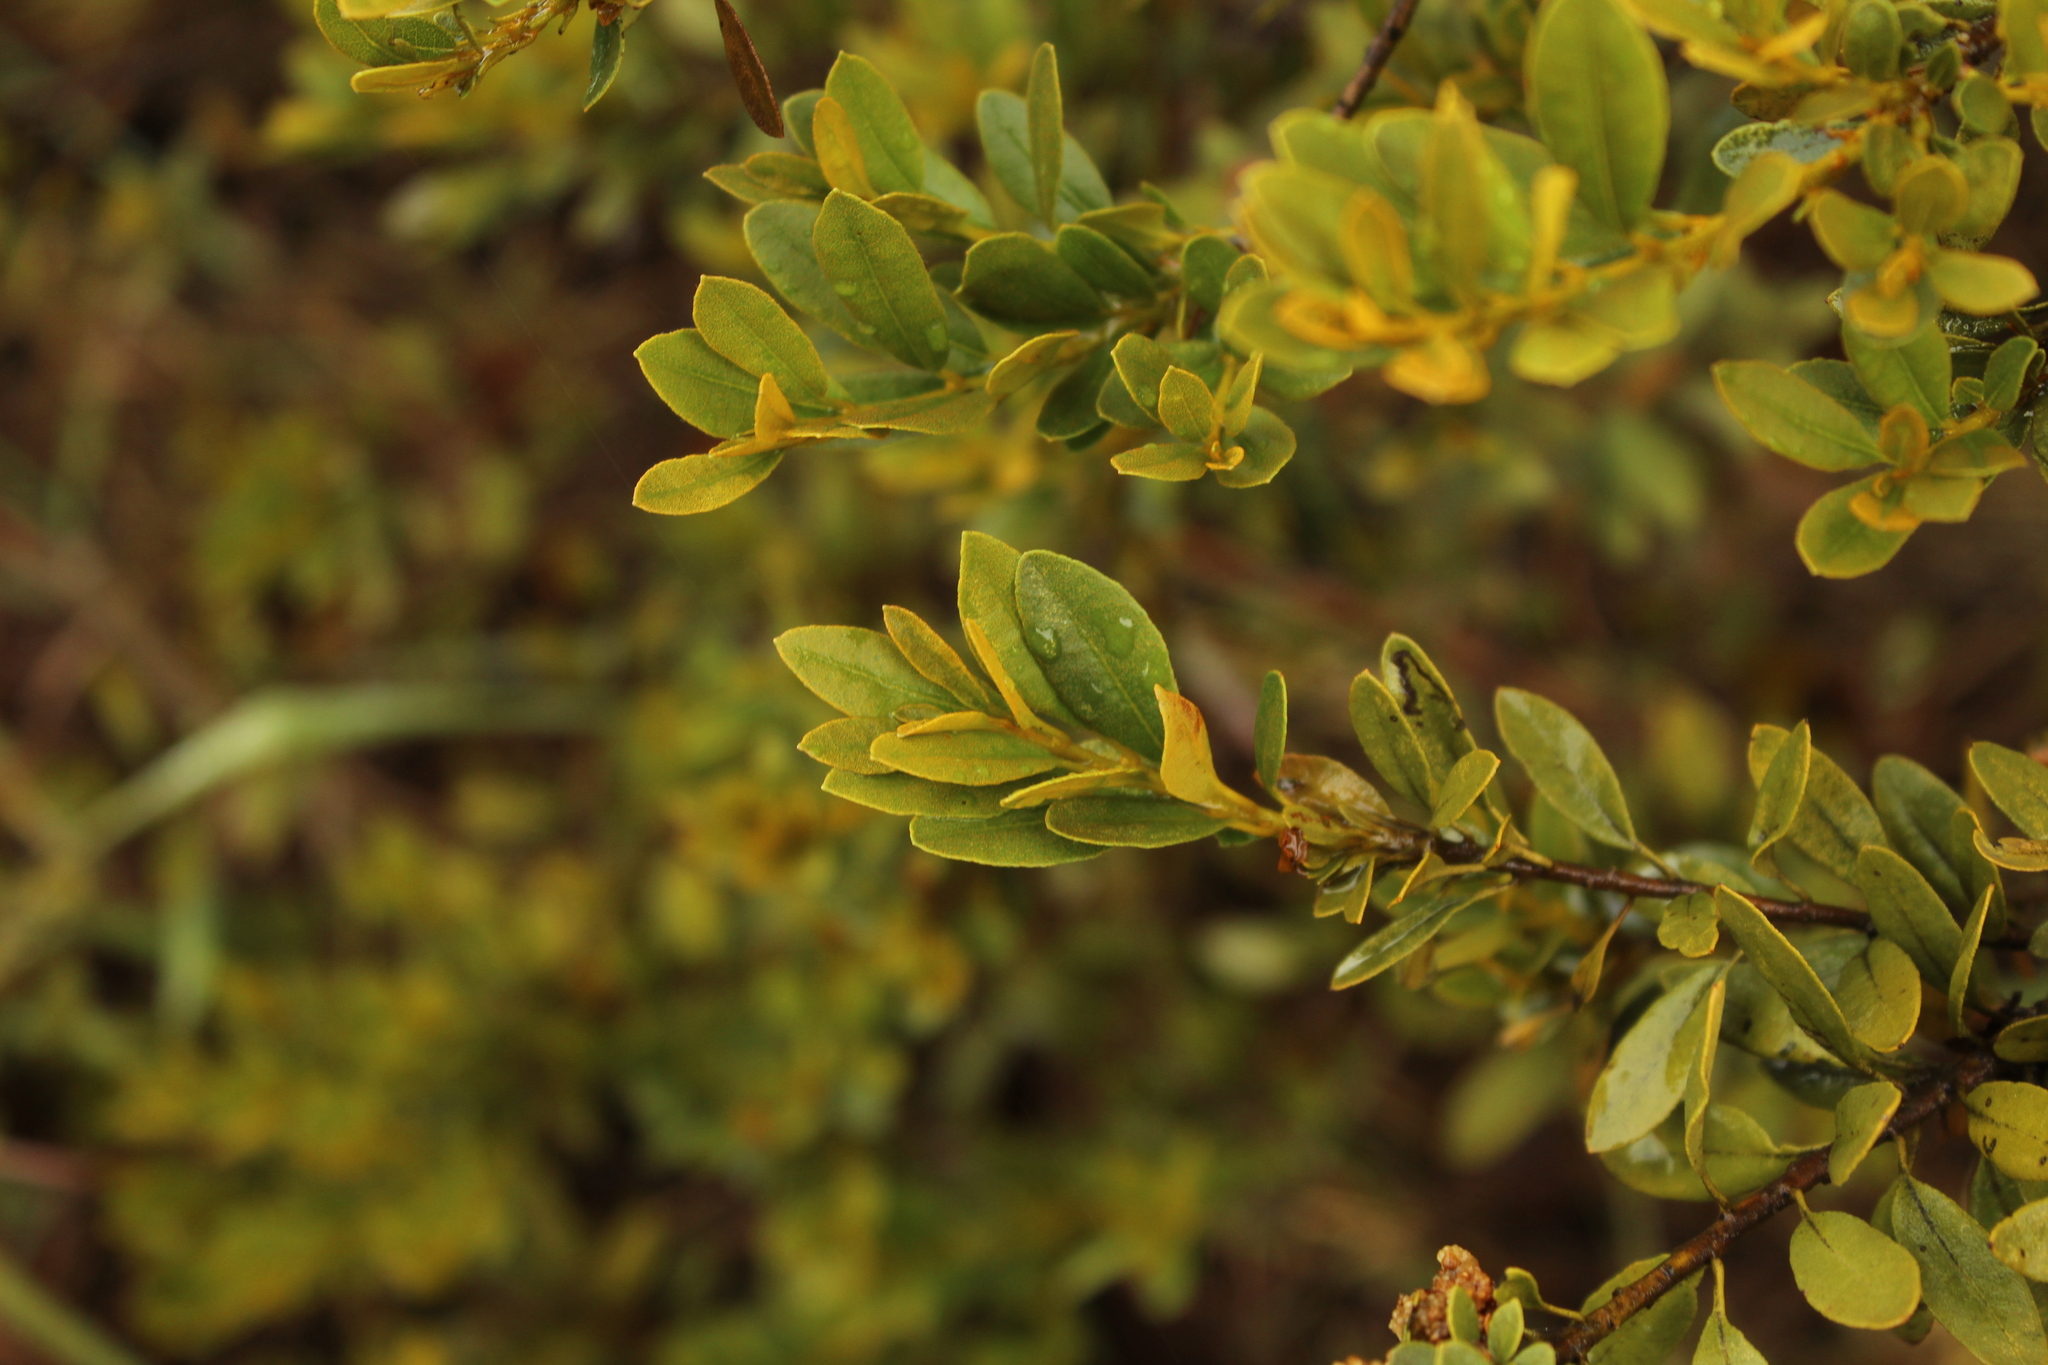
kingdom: Plantae
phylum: Tracheophyta
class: Magnoliopsida
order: Fagales
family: Myricaceae
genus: Morella
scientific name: Morella parvifolia
